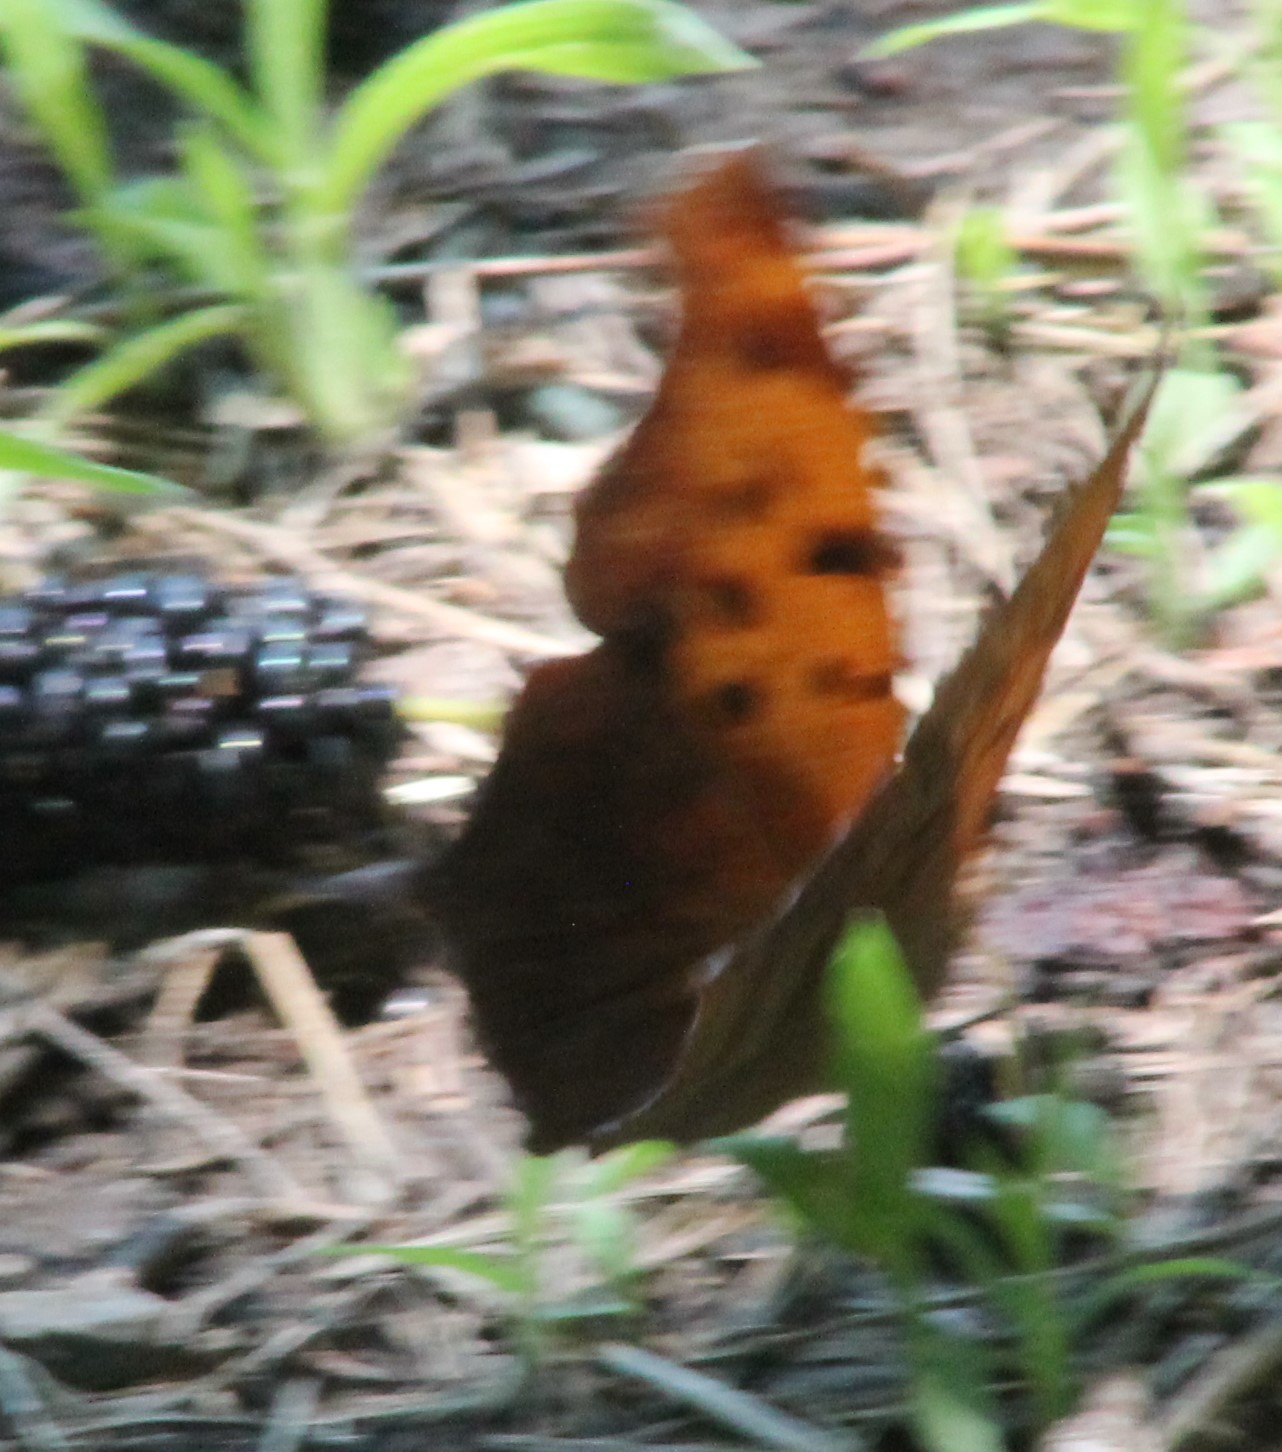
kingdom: Animalia
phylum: Arthropoda
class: Insecta
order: Lepidoptera
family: Nymphalidae
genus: Polygonia
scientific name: Polygonia interrogationis
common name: Question mark
